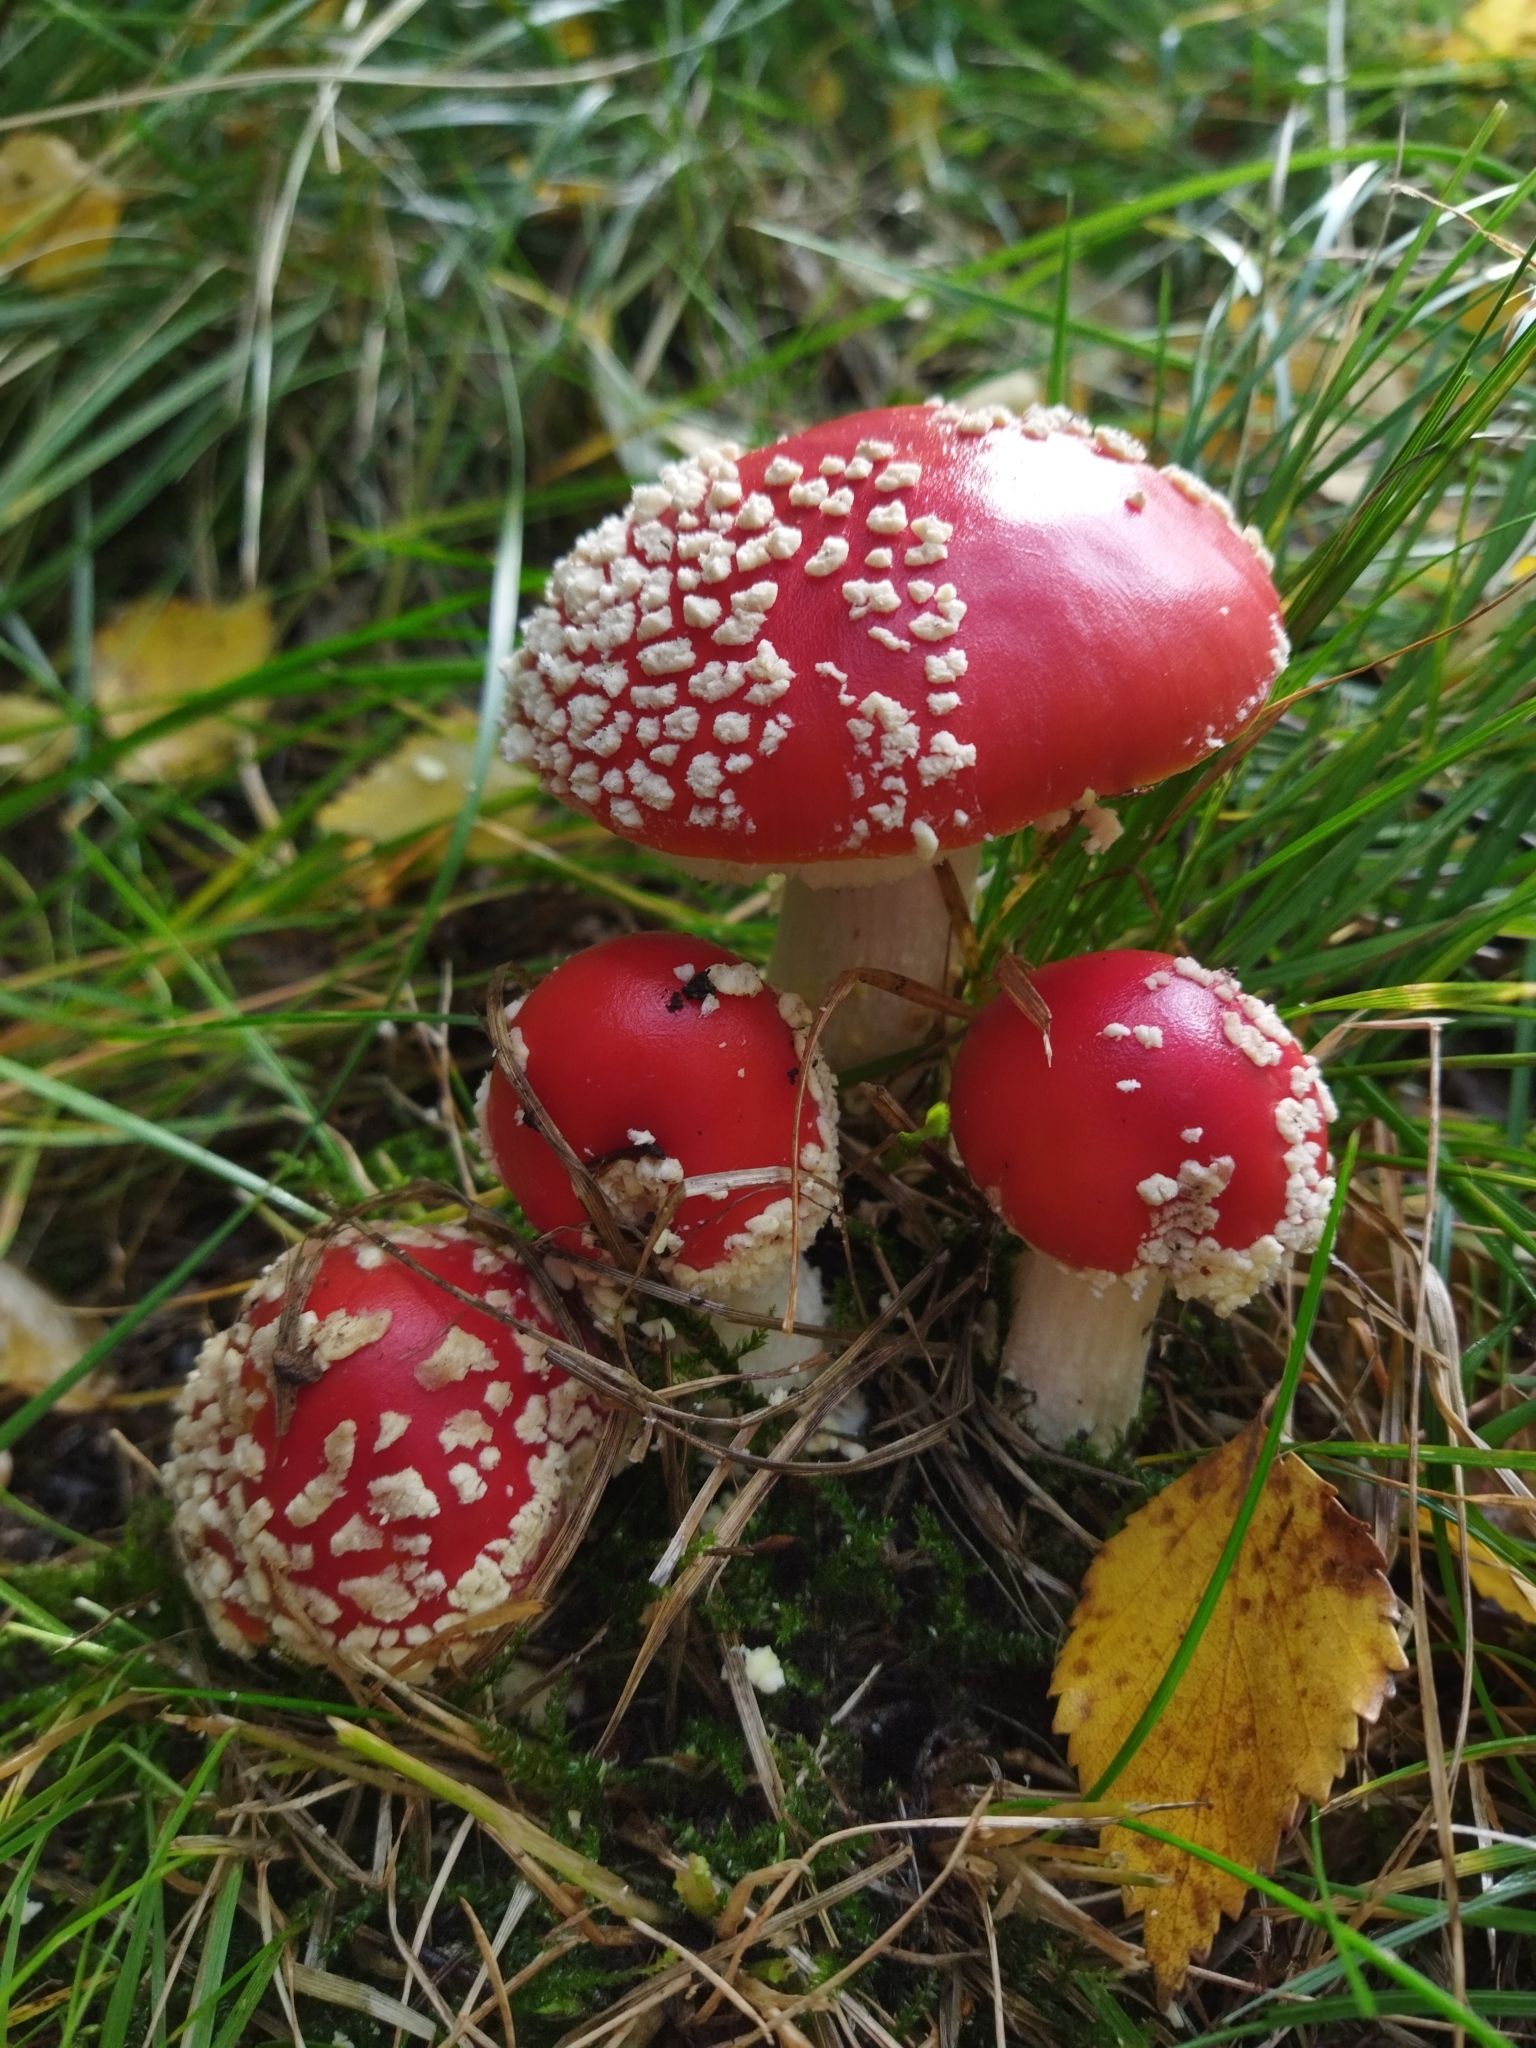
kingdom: Fungi
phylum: Basidiomycota
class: Agaricomycetes
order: Agaricales
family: Amanitaceae
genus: Amanita
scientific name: Amanita muscaria
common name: Fly agaric
